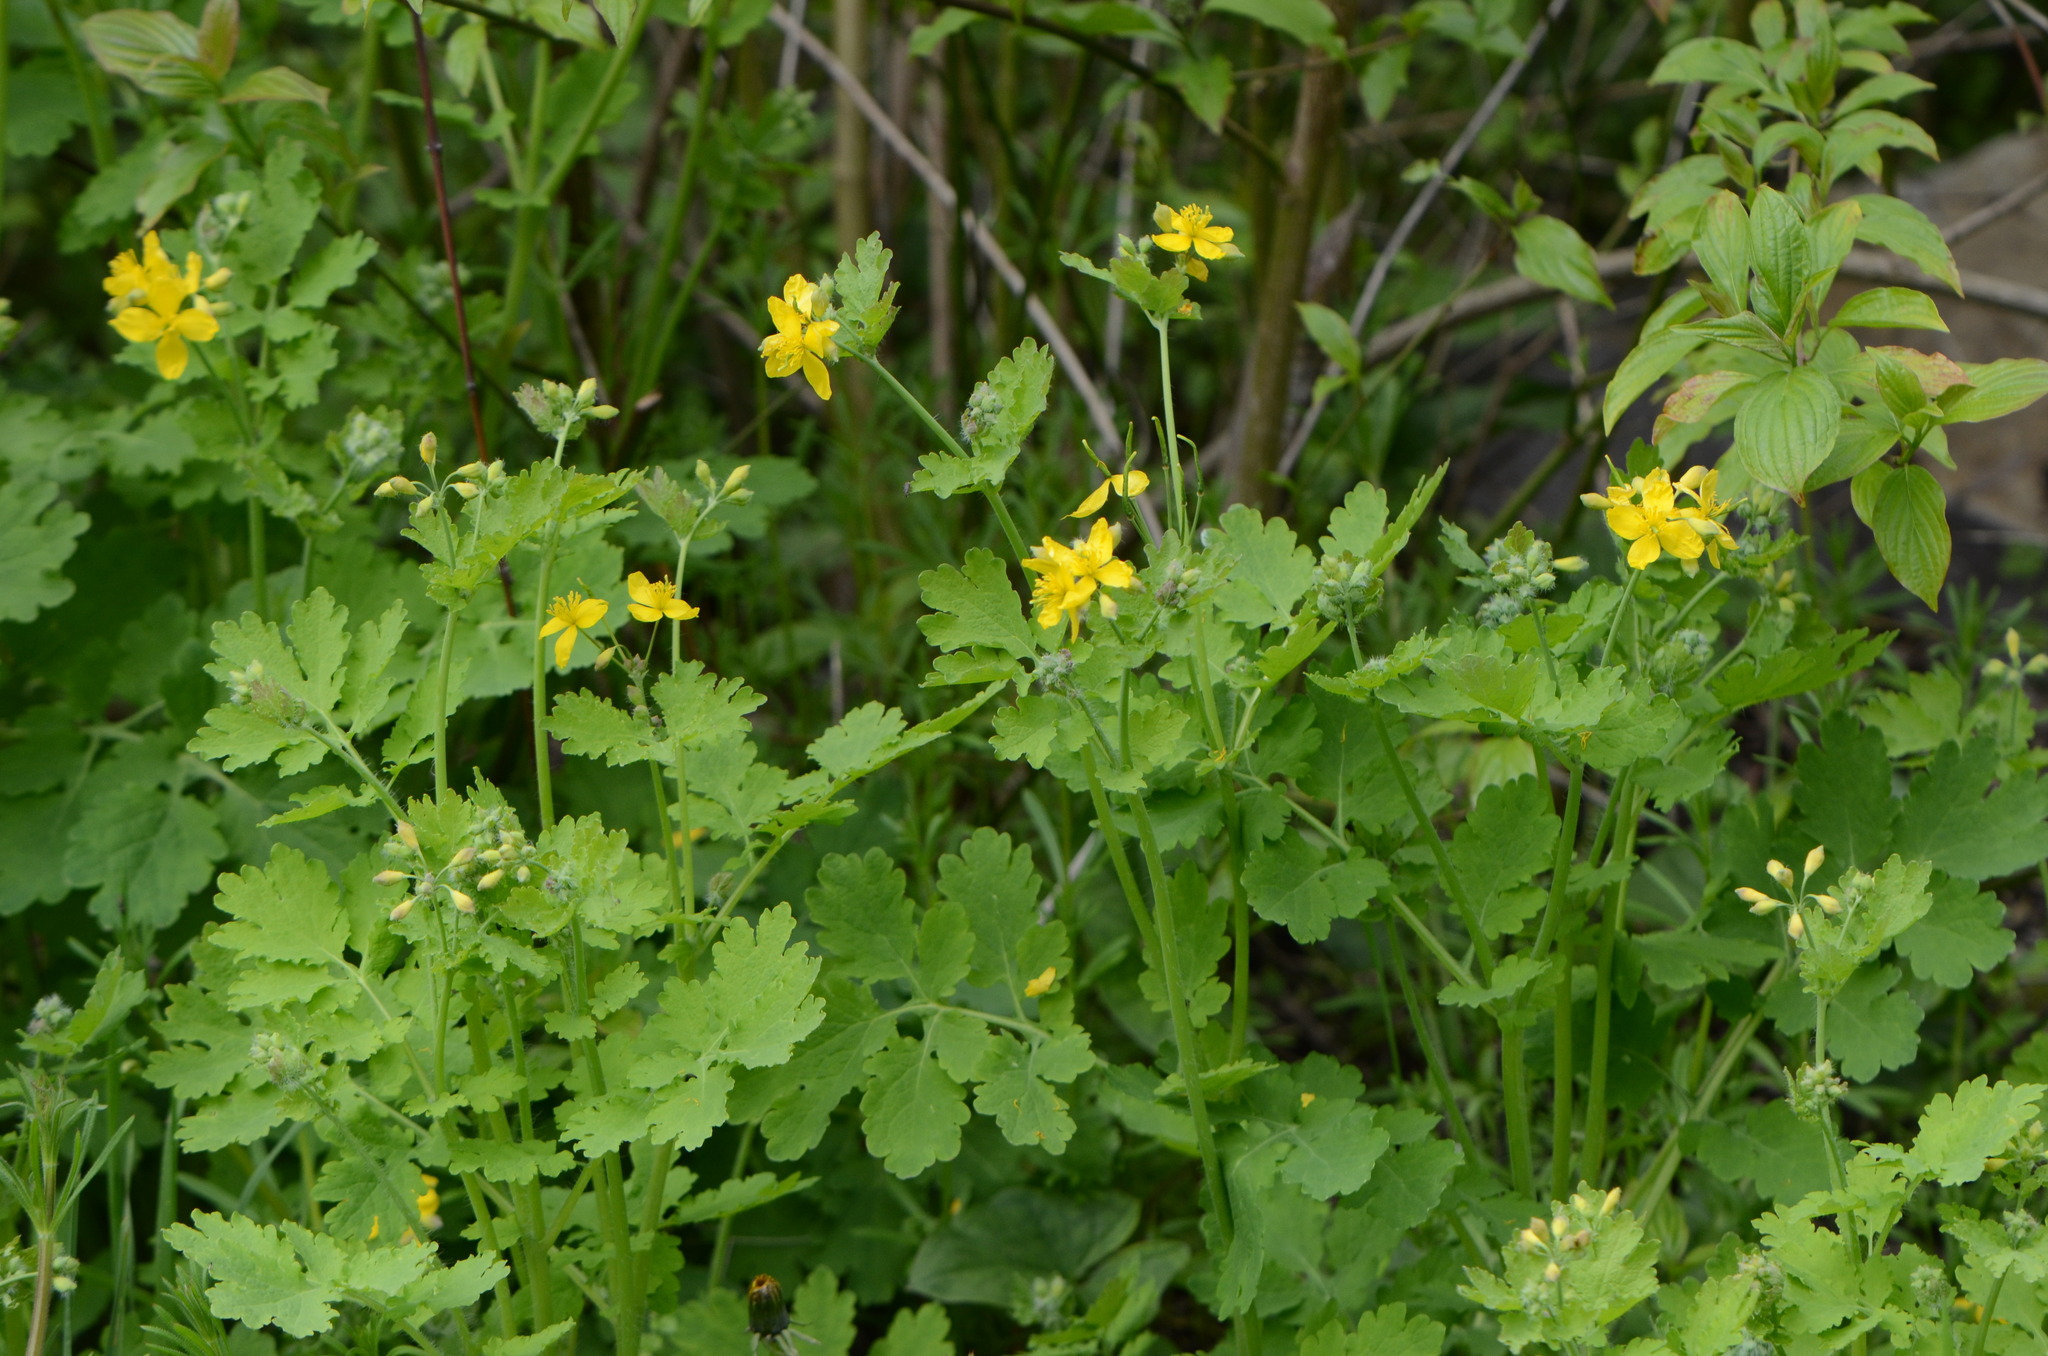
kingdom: Plantae
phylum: Tracheophyta
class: Magnoliopsida
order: Ranunculales
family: Papaveraceae
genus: Chelidonium
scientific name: Chelidonium majus
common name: Greater celandine
